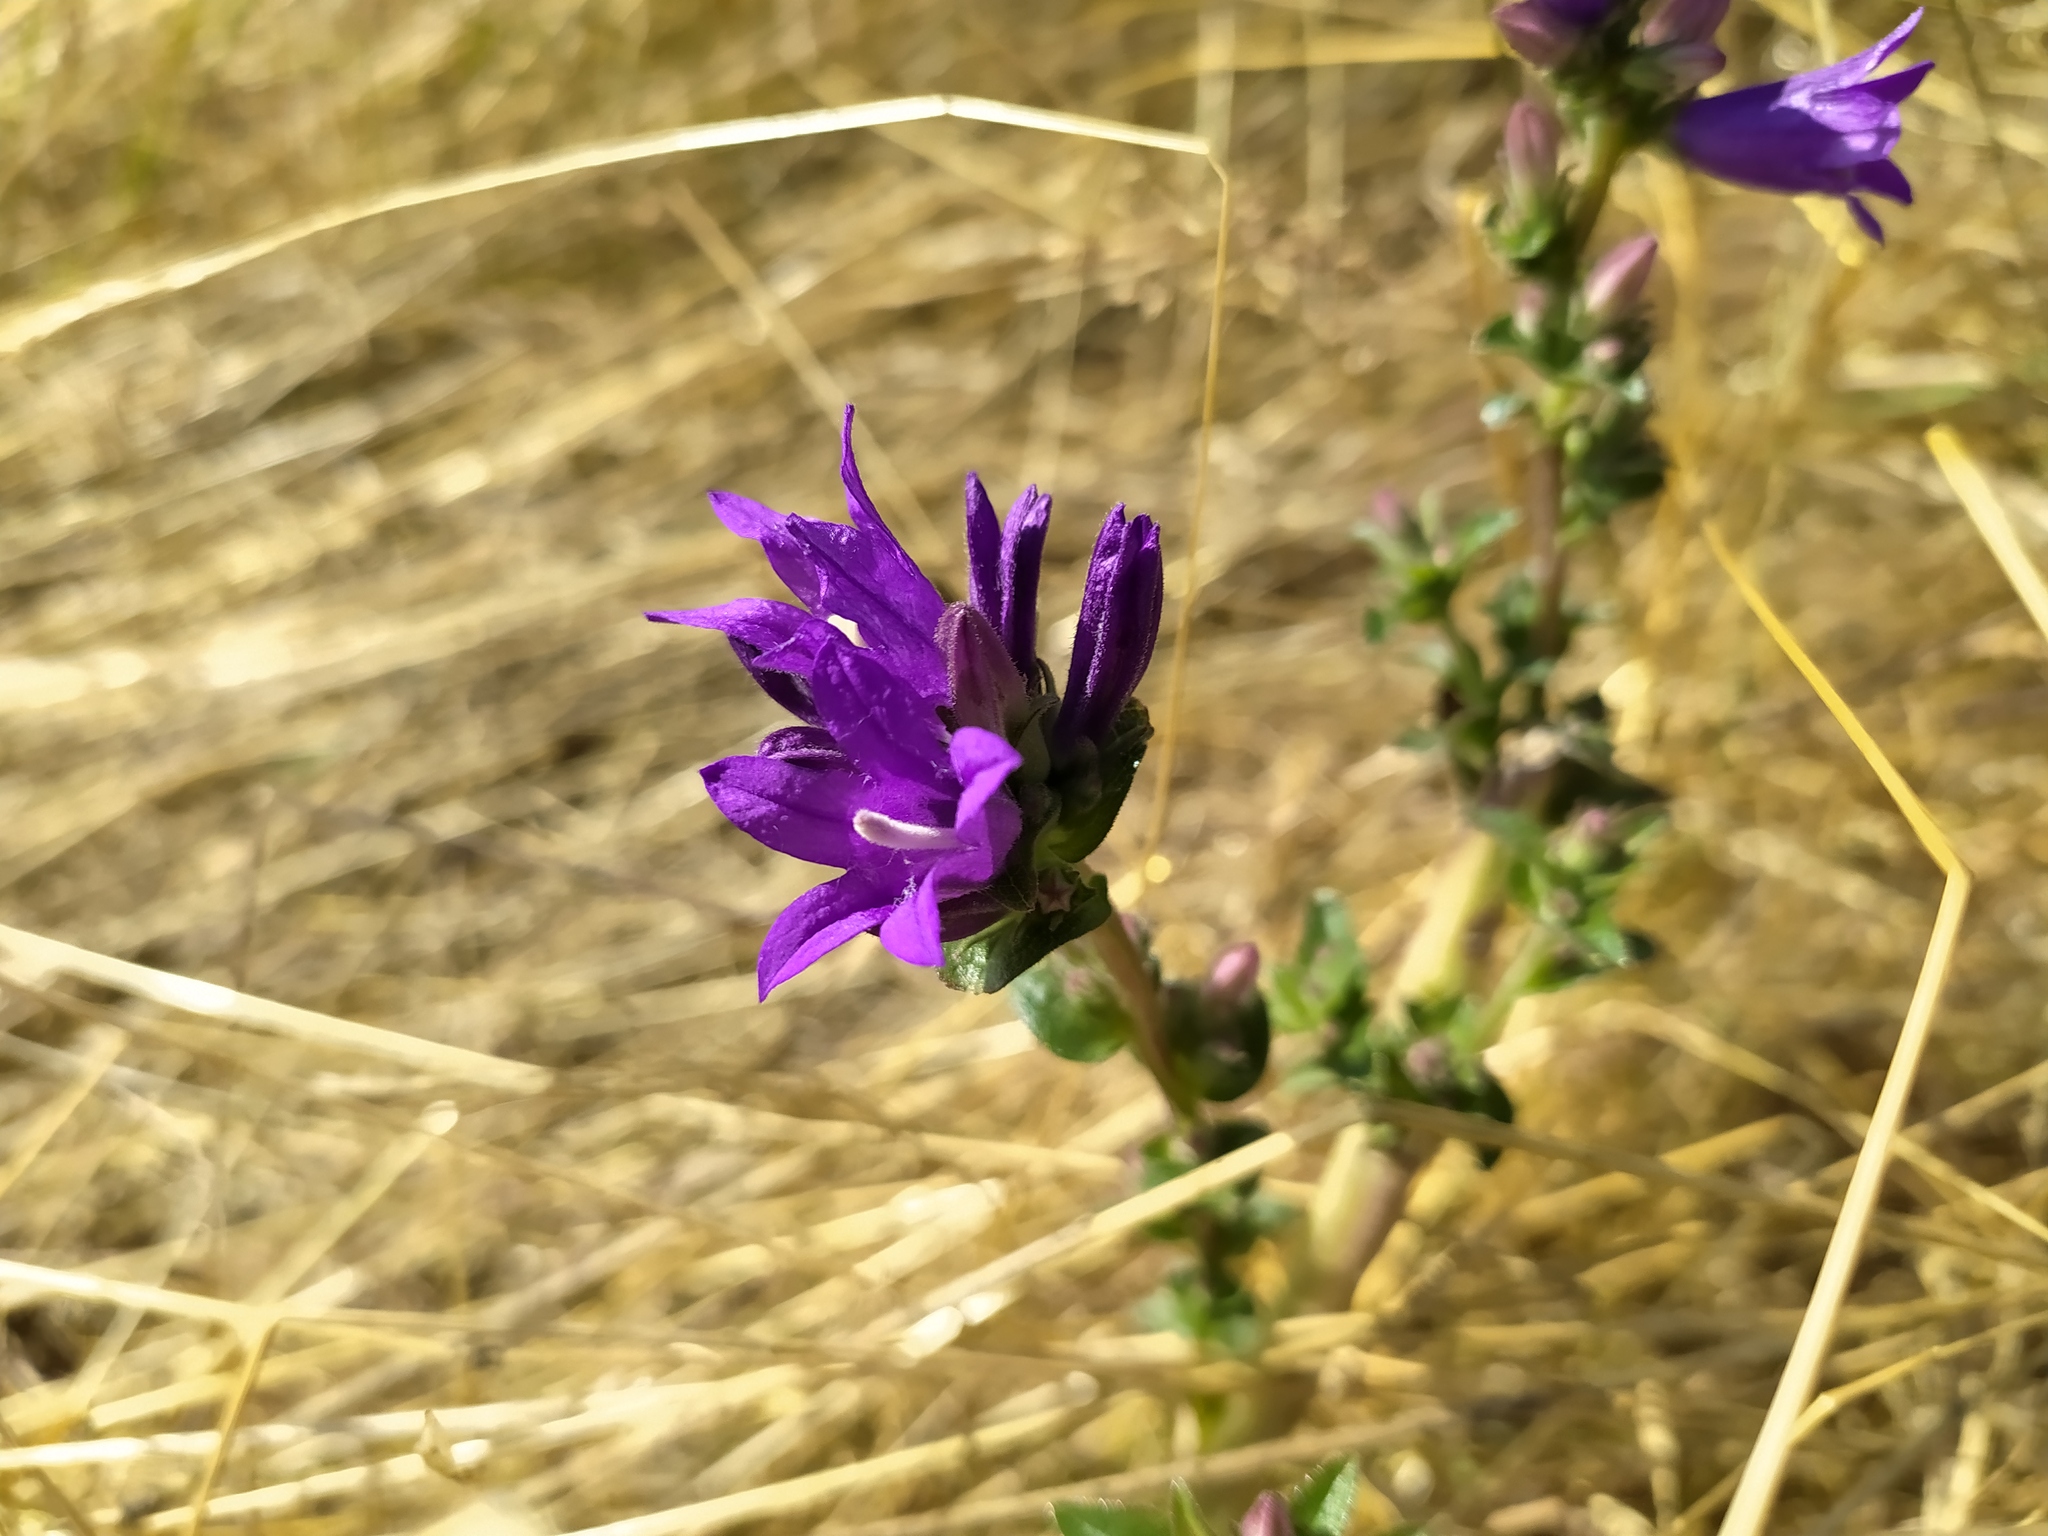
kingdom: Plantae
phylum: Tracheophyta
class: Magnoliopsida
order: Asterales
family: Campanulaceae
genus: Campanula
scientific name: Campanula glomerata
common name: Clustered bellflower
